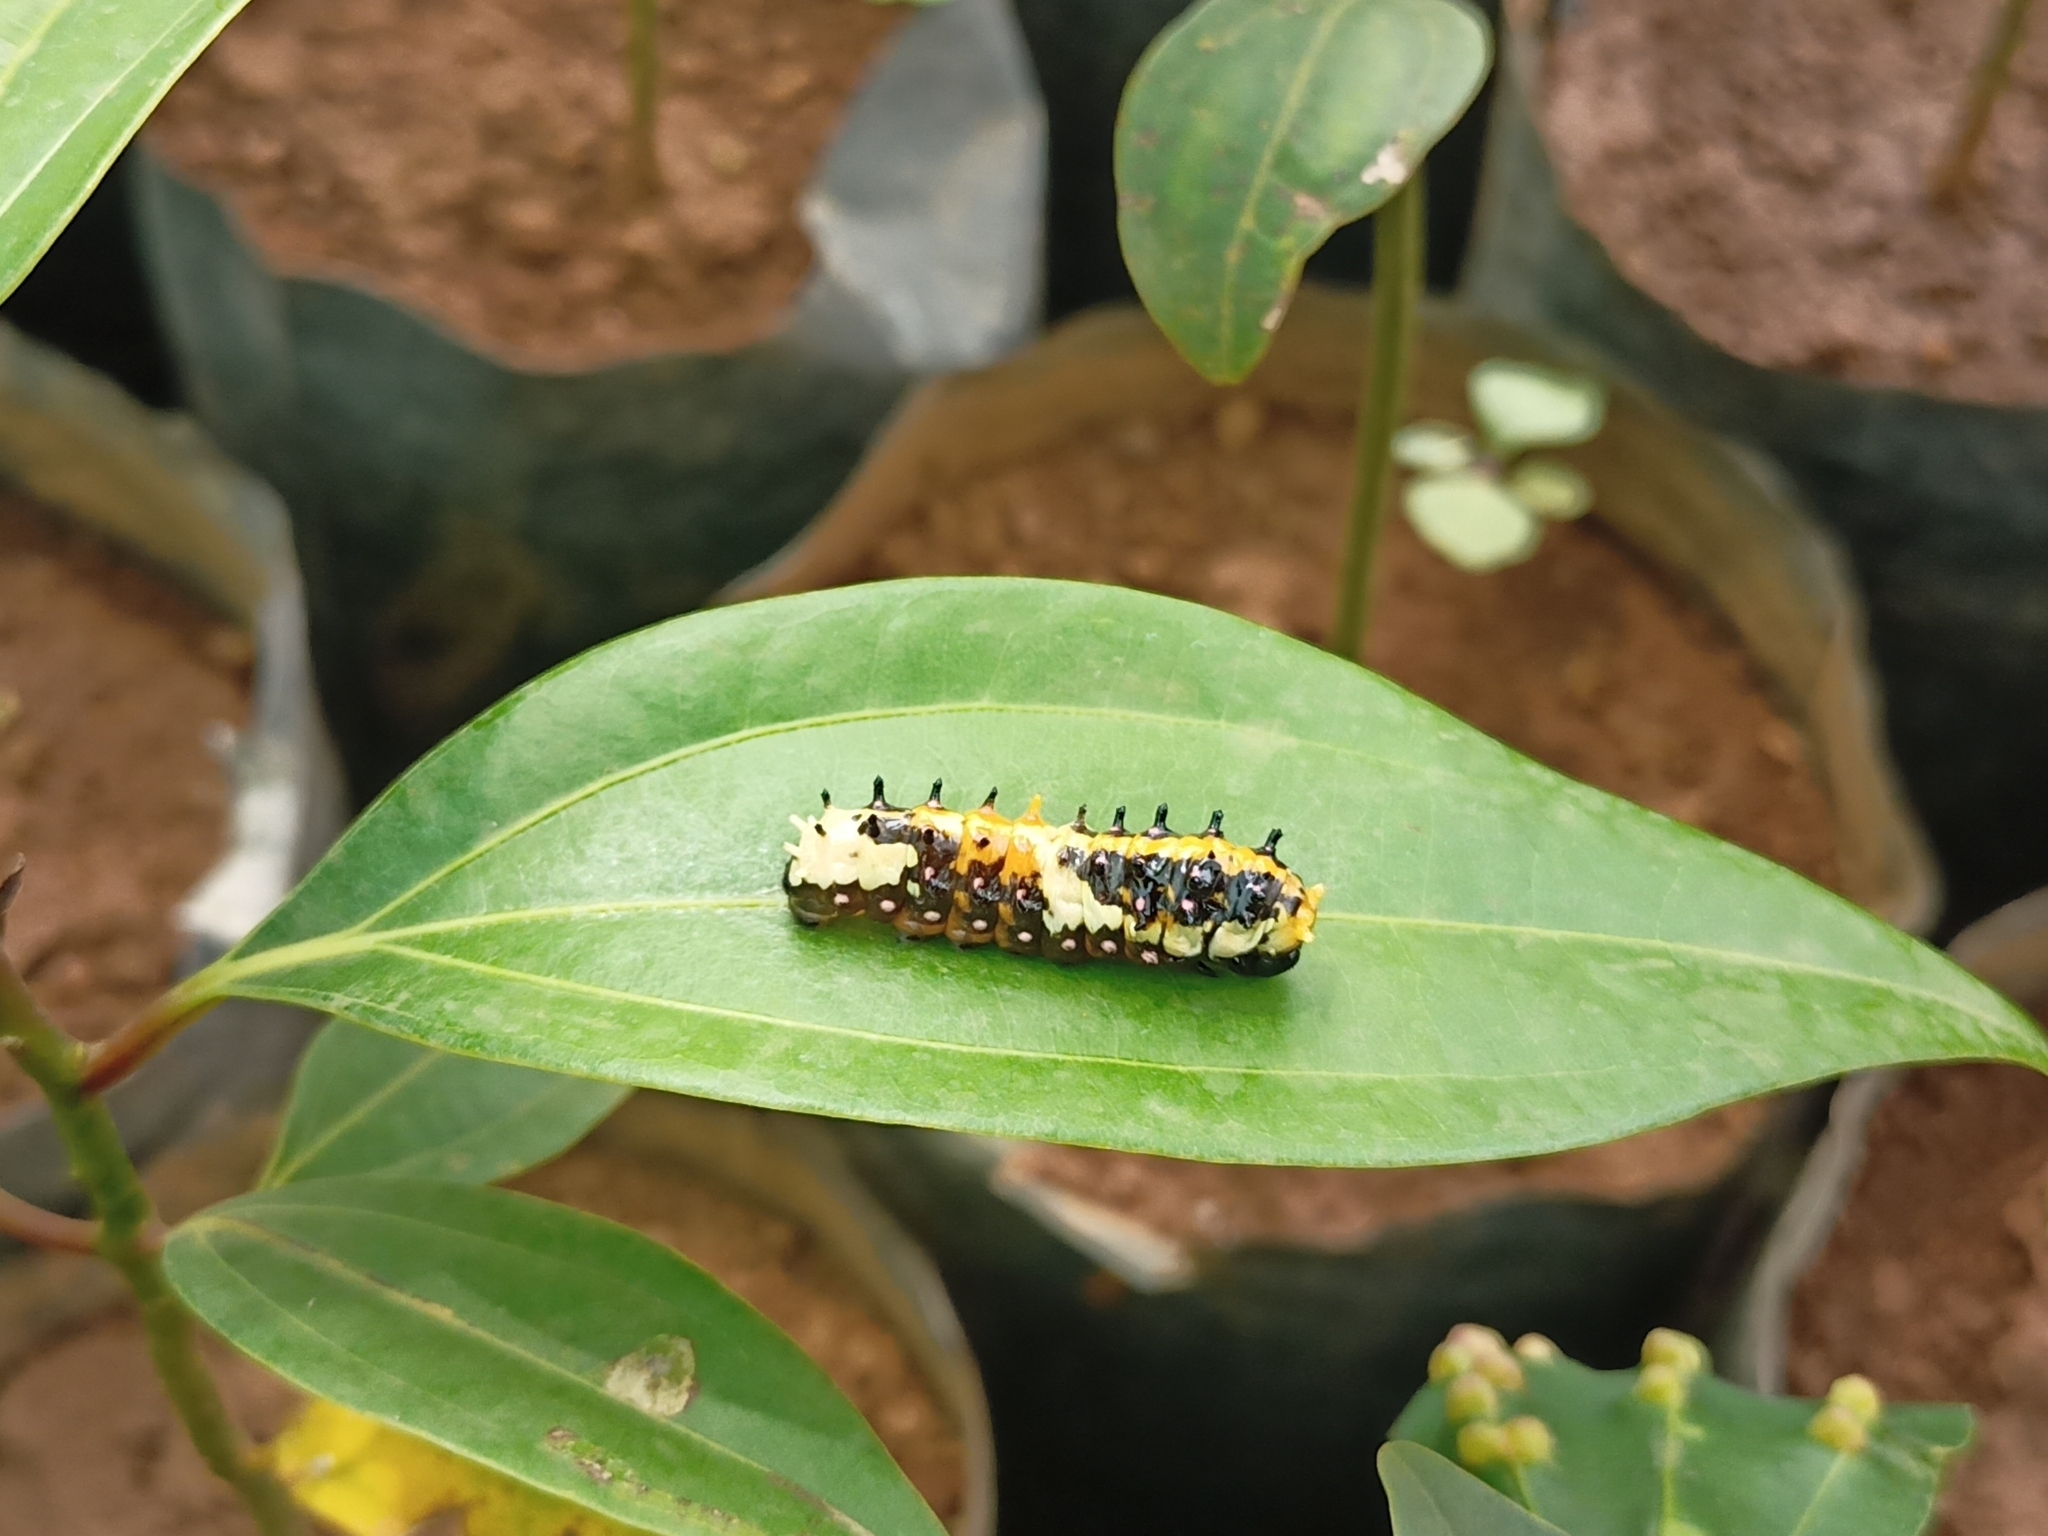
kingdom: Animalia
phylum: Arthropoda
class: Insecta
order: Lepidoptera
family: Papilionidae
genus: Chilasa
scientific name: Chilasa clytia
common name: Common mime
